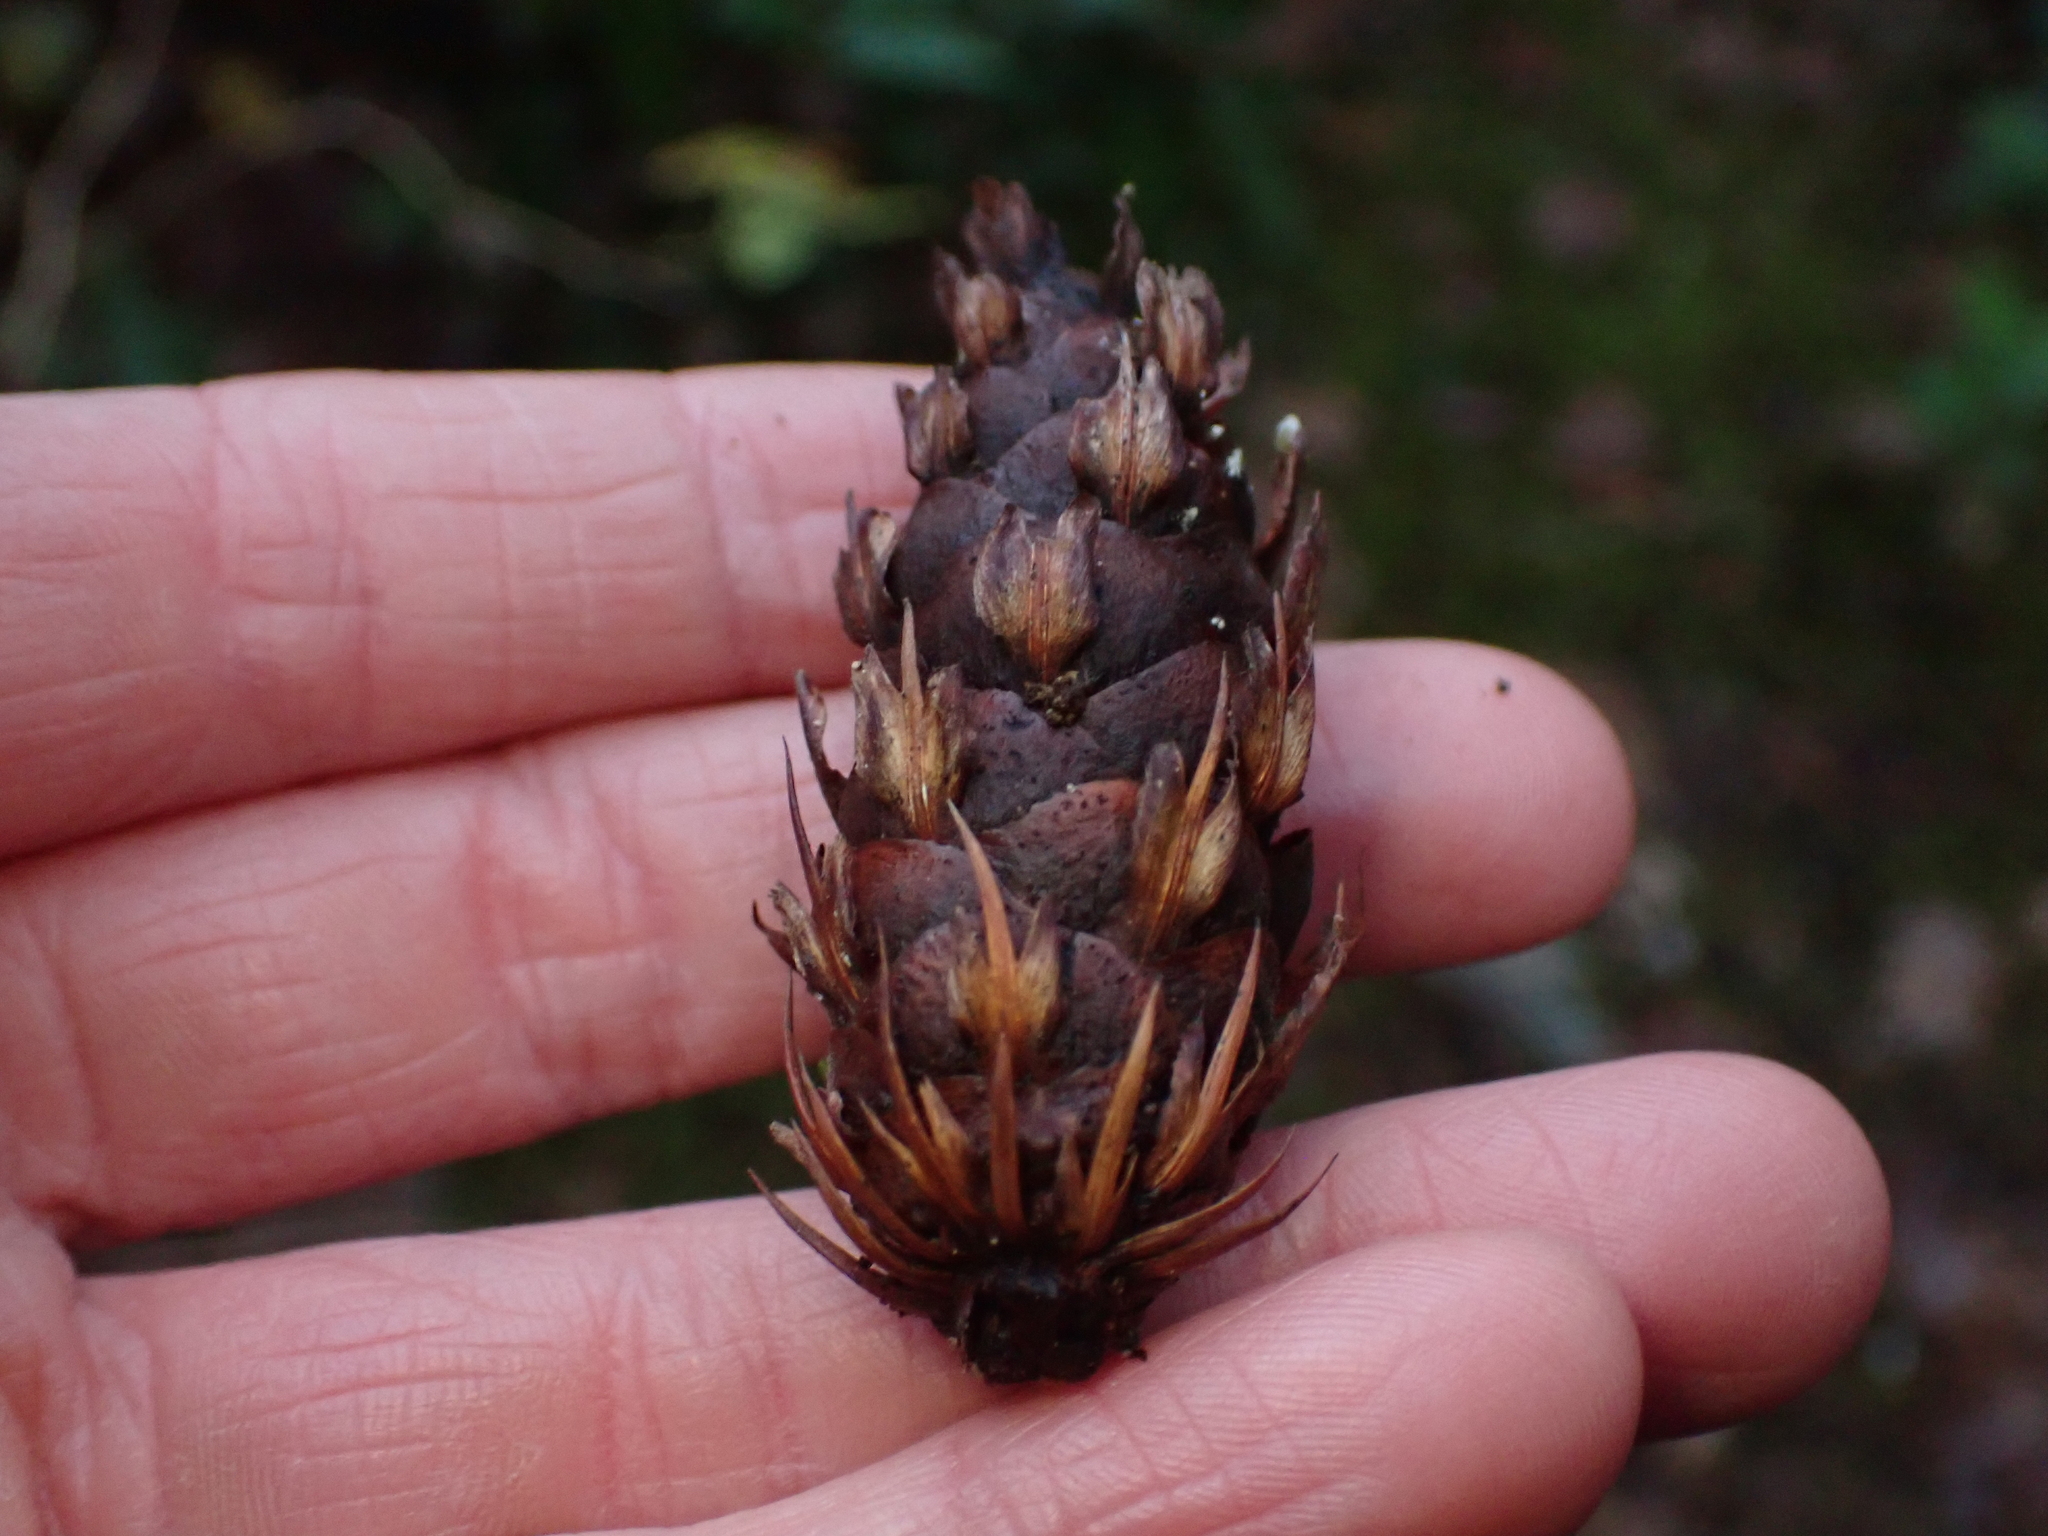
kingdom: Plantae
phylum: Tracheophyta
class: Pinopsida
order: Pinales
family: Pinaceae
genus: Pseudotsuga
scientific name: Pseudotsuga menziesii
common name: Douglas fir
